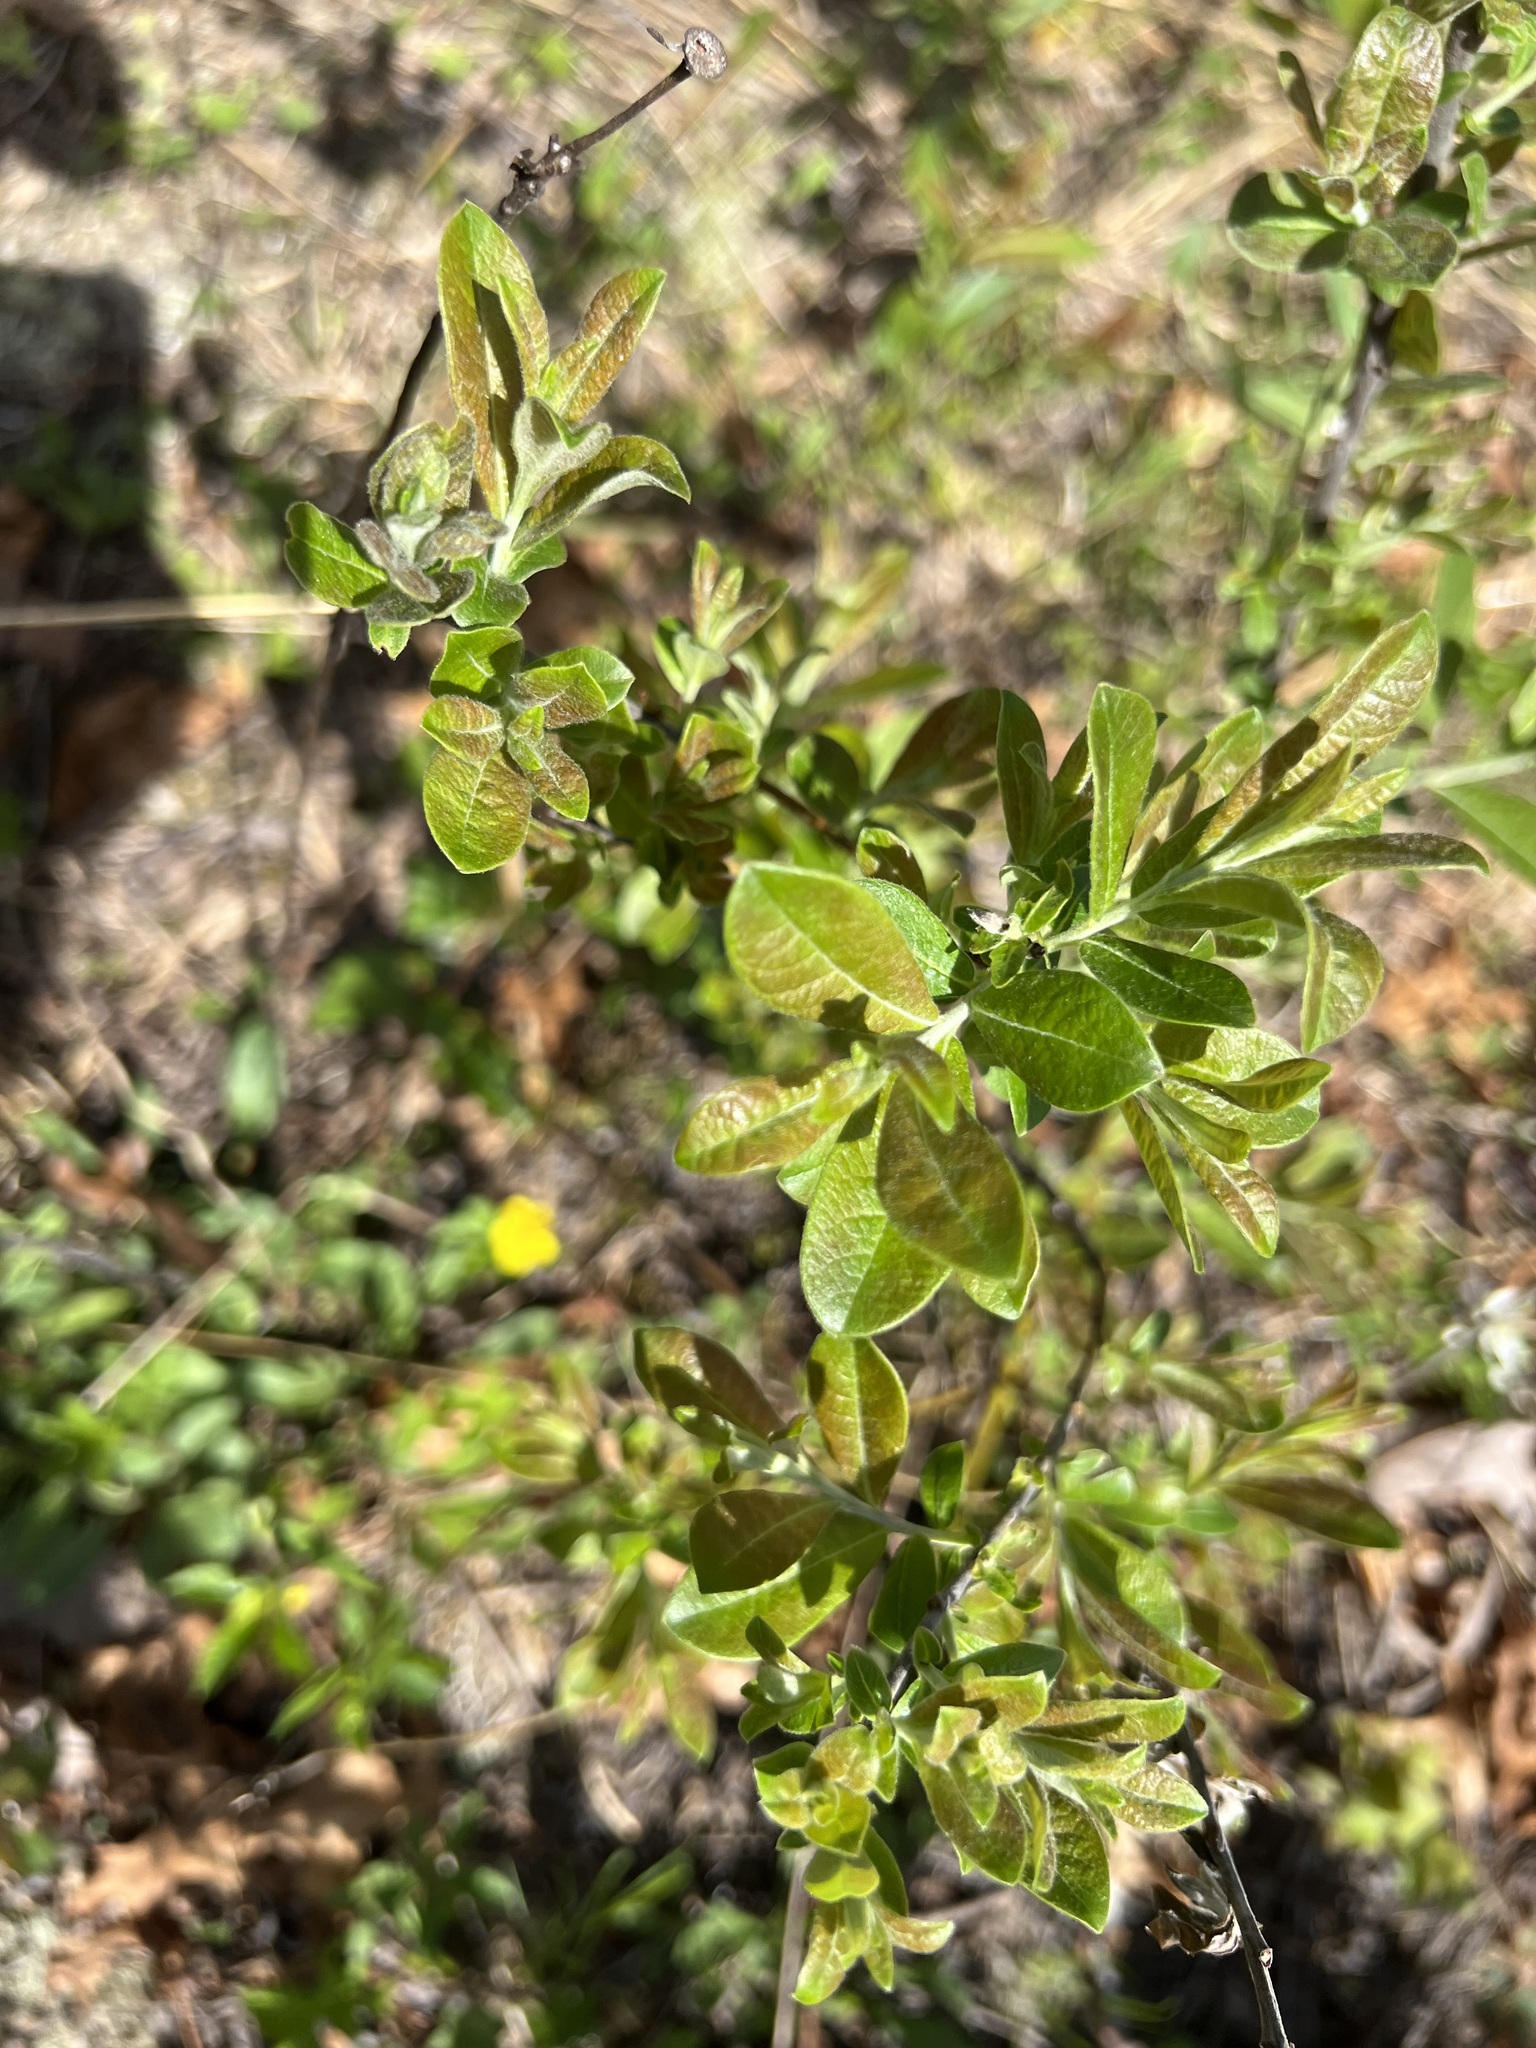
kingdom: Plantae
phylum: Tracheophyta
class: Magnoliopsida
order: Malpighiales
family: Salicaceae
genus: Salix
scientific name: Salix humilis
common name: Prairie willow
